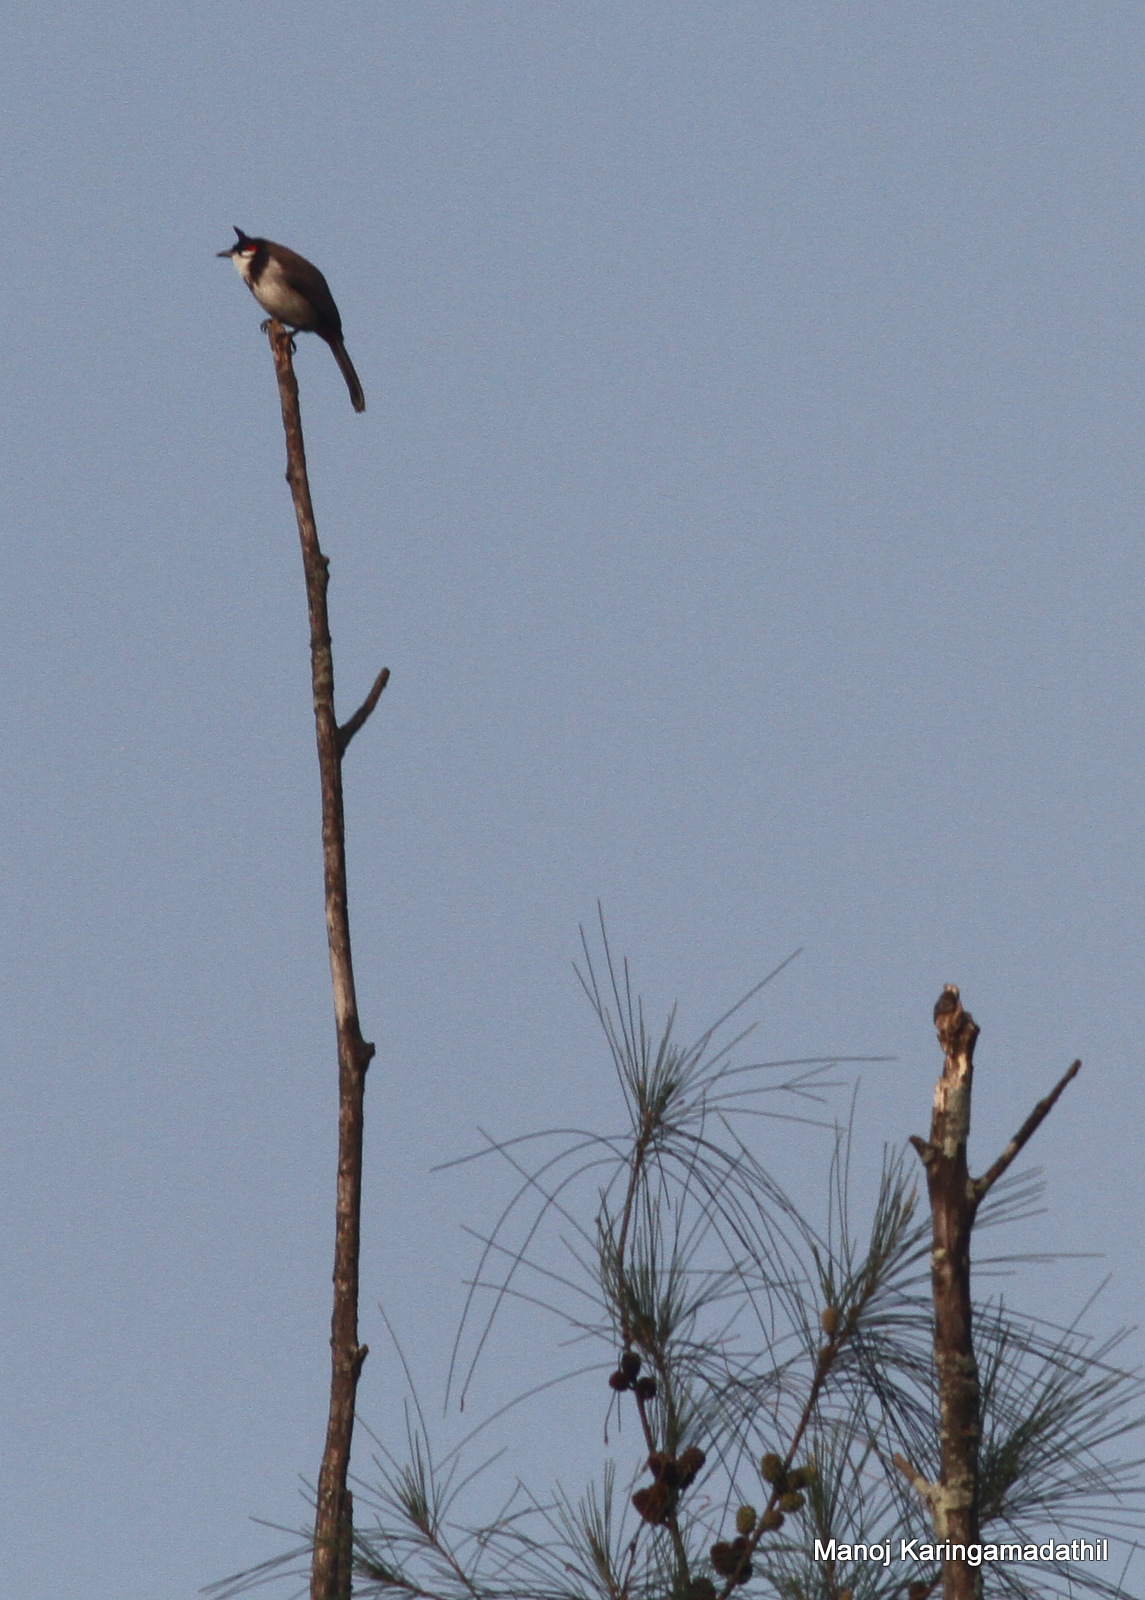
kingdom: Animalia
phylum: Chordata
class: Aves
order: Passeriformes
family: Pycnonotidae
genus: Pycnonotus
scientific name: Pycnonotus jocosus
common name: Red-whiskered bulbul
